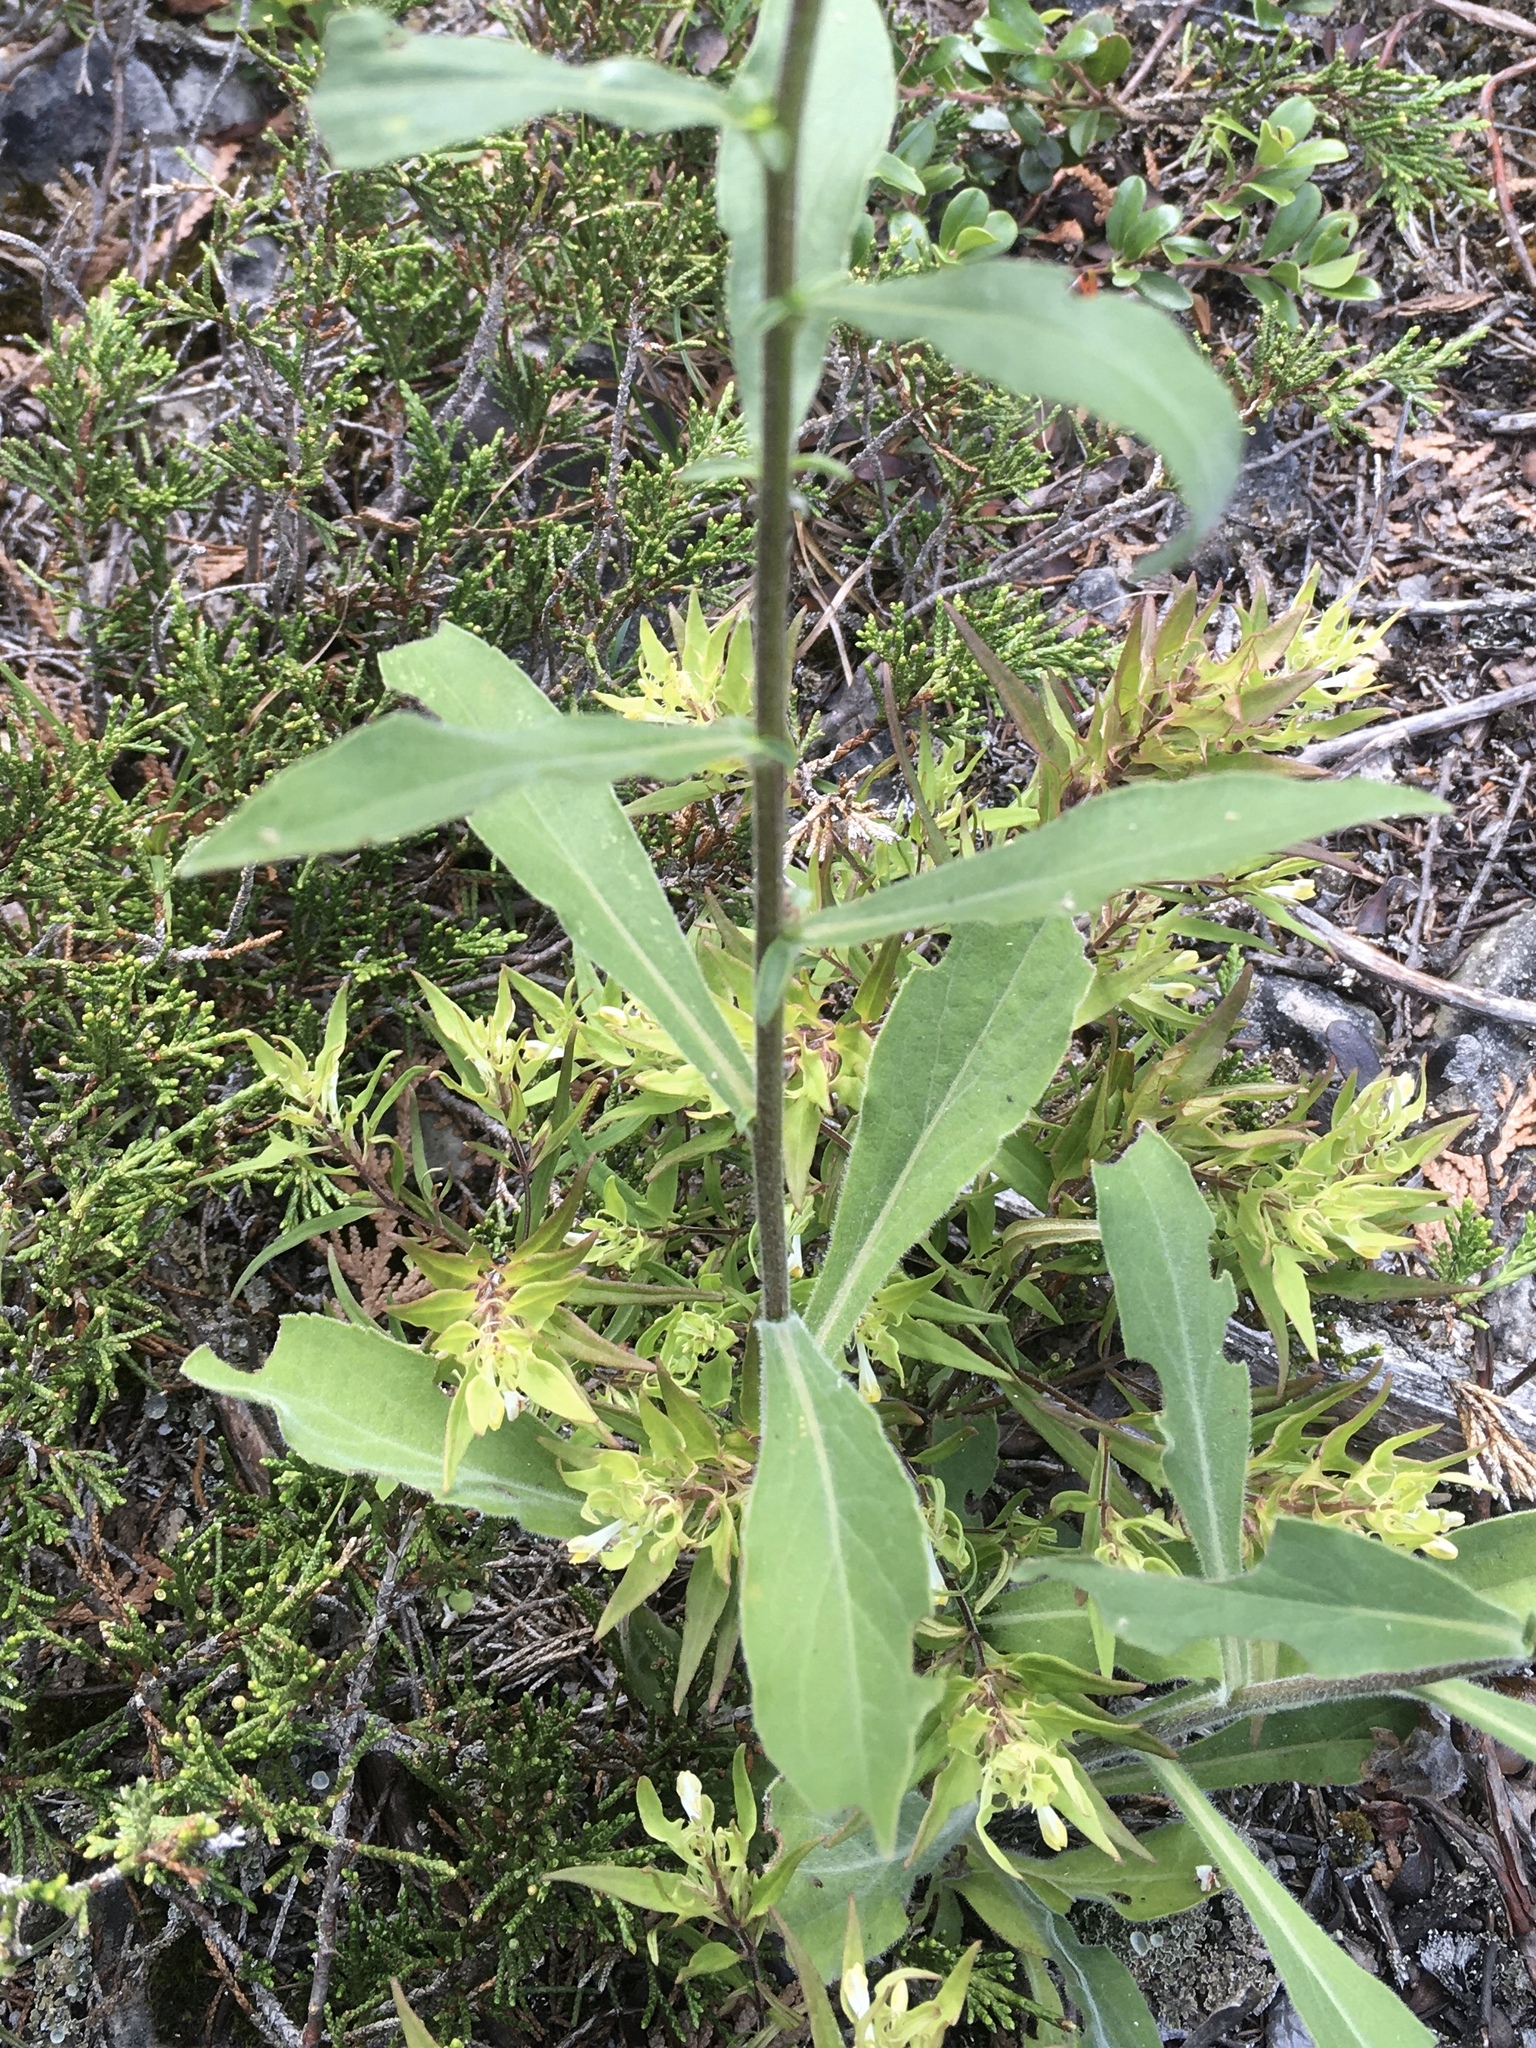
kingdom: Plantae
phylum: Tracheophyta
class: Magnoliopsida
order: Asterales
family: Asteraceae
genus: Solidago
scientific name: Solidago hispida
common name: Hairy goldenrod
